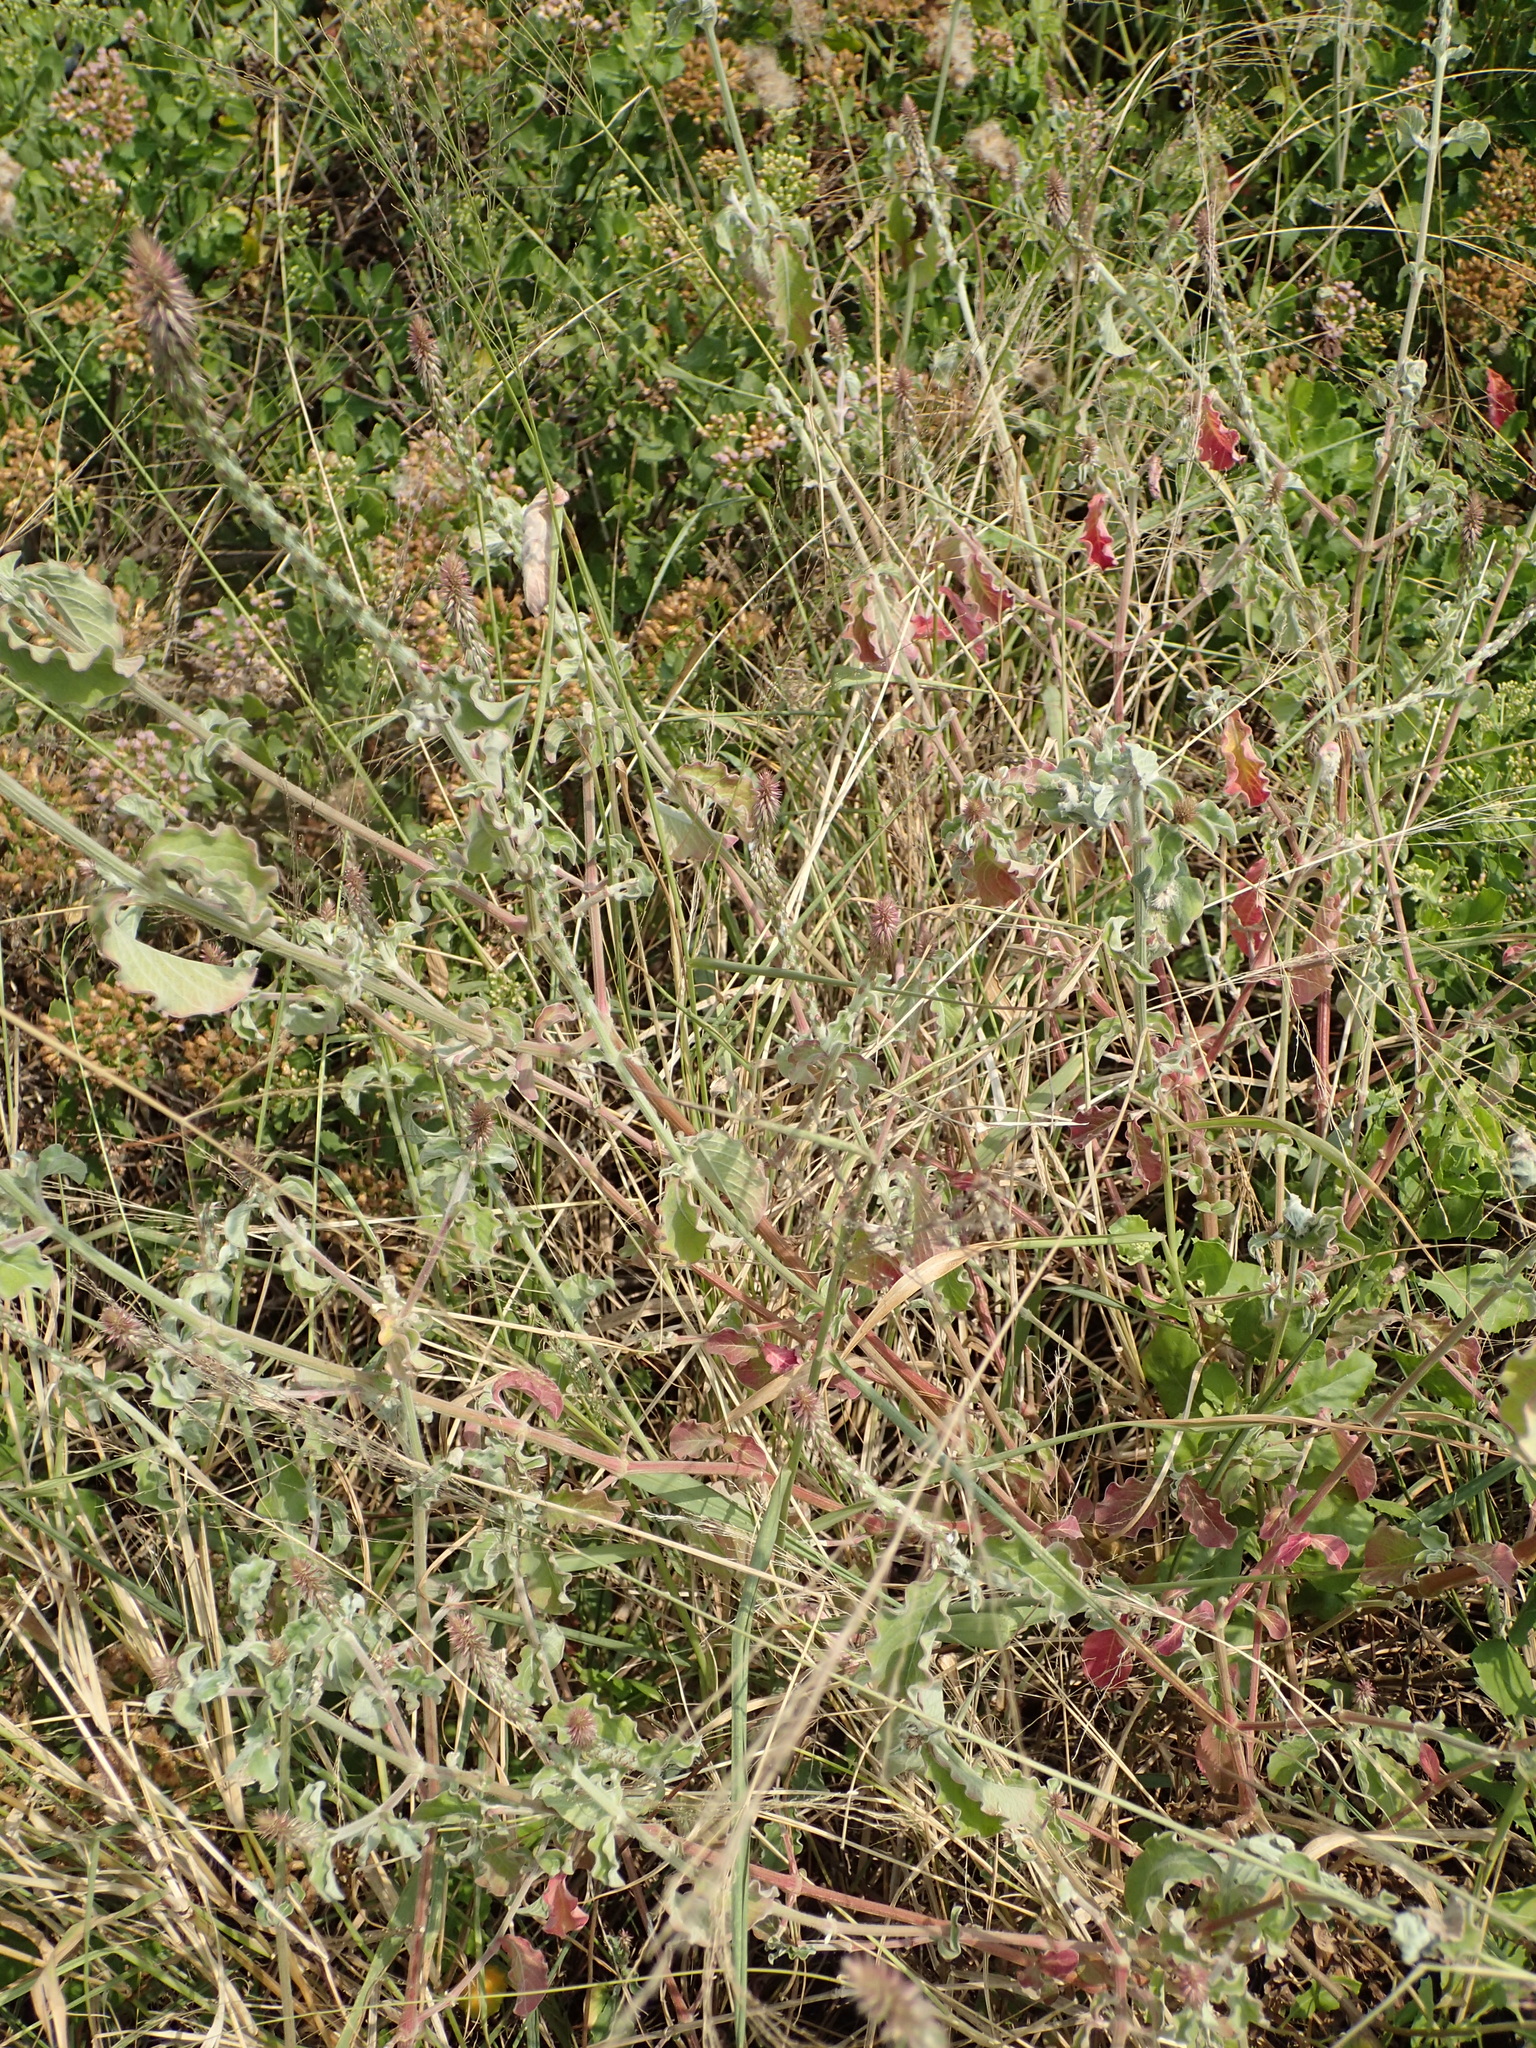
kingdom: Plantae
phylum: Tracheophyta
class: Magnoliopsida
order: Caryophyllales
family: Amaranthaceae
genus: Achyranthes
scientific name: Achyranthes aspera
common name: Devil's horsewhip
